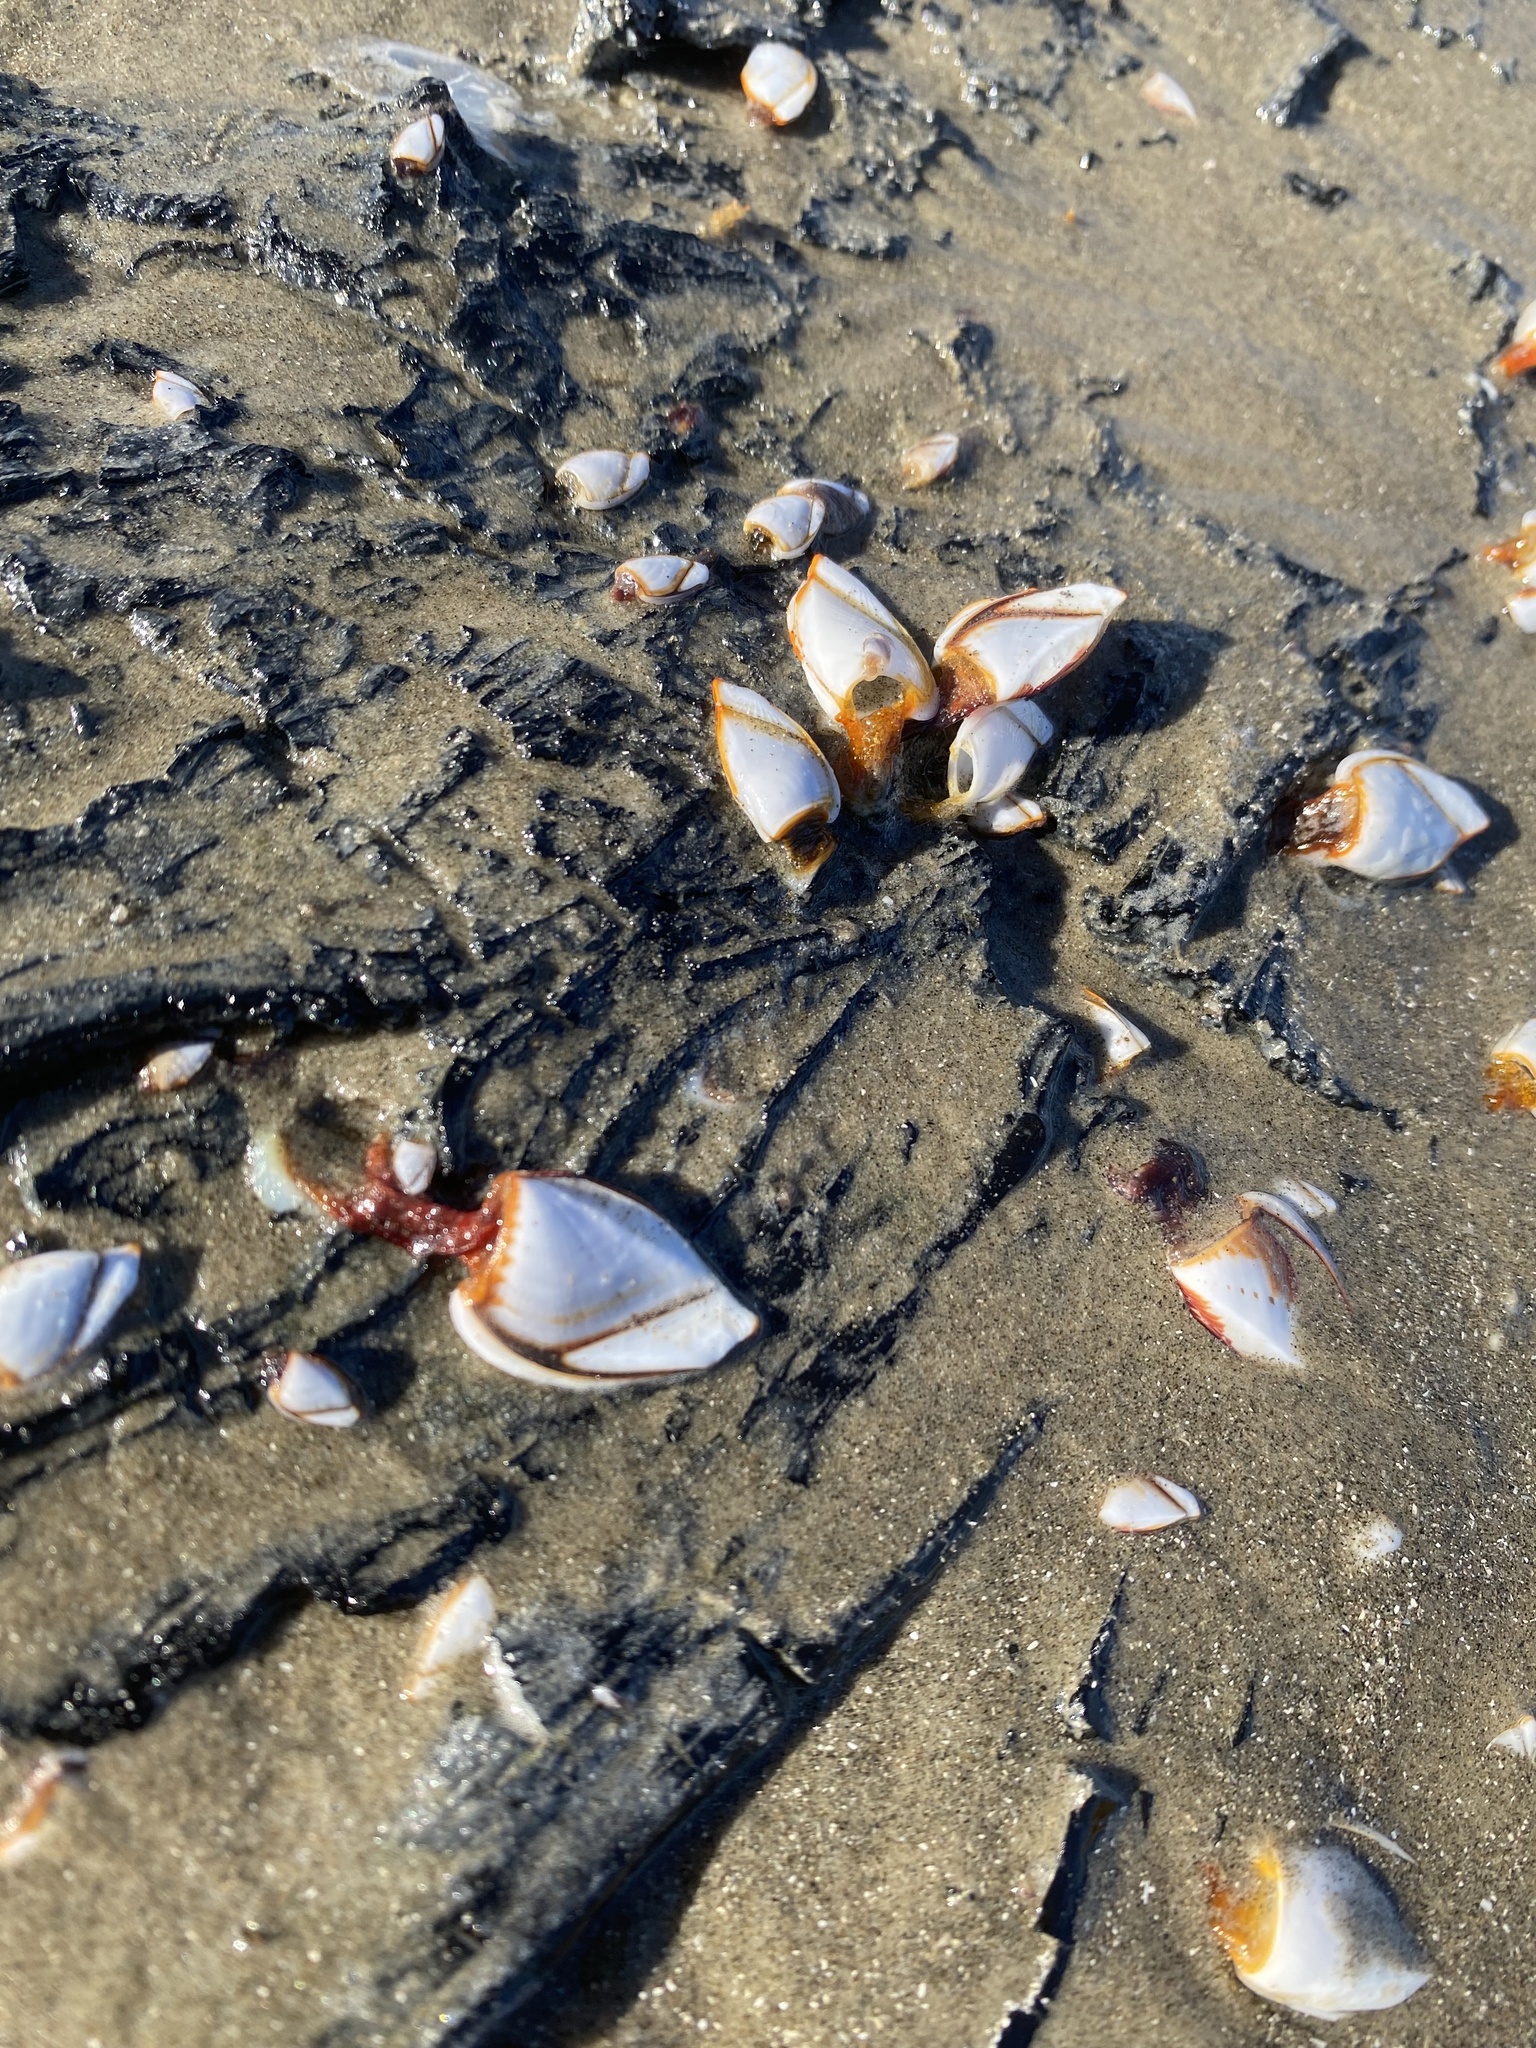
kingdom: Animalia
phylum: Arthropoda
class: Maxillopoda
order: Pedunculata
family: Lepadidae
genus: Lepas
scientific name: Lepas anserifera
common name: Goose barnacle
